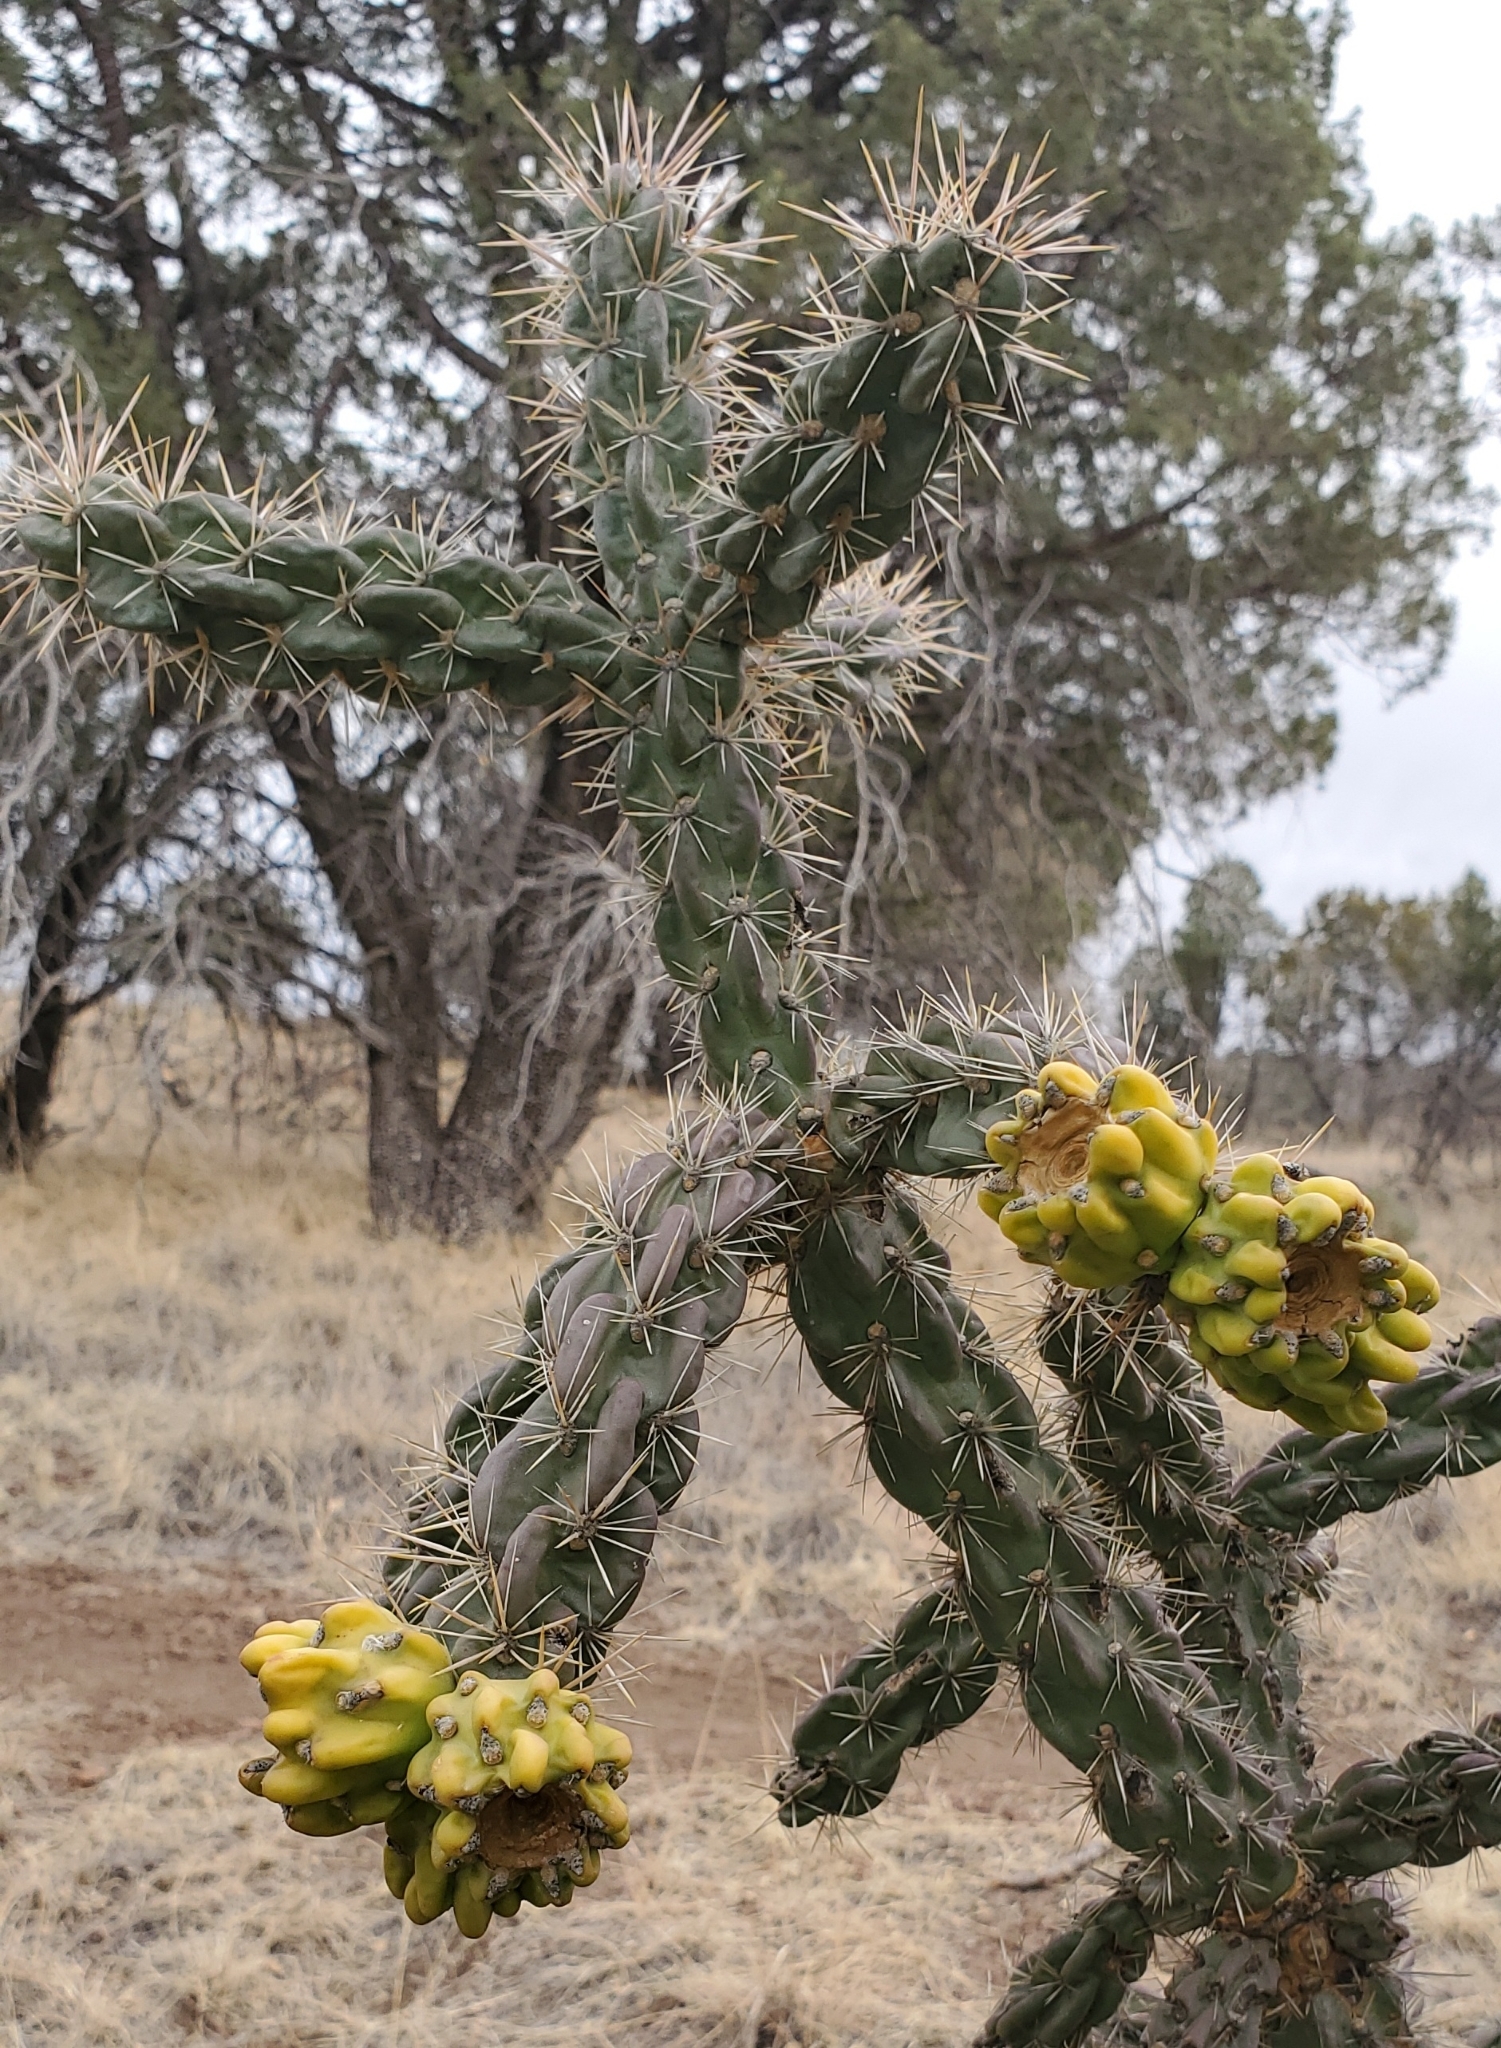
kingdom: Plantae
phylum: Tracheophyta
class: Magnoliopsida
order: Caryophyllales
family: Cactaceae
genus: Cylindropuntia
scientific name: Cylindropuntia imbricata
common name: Candelabrum cactus
